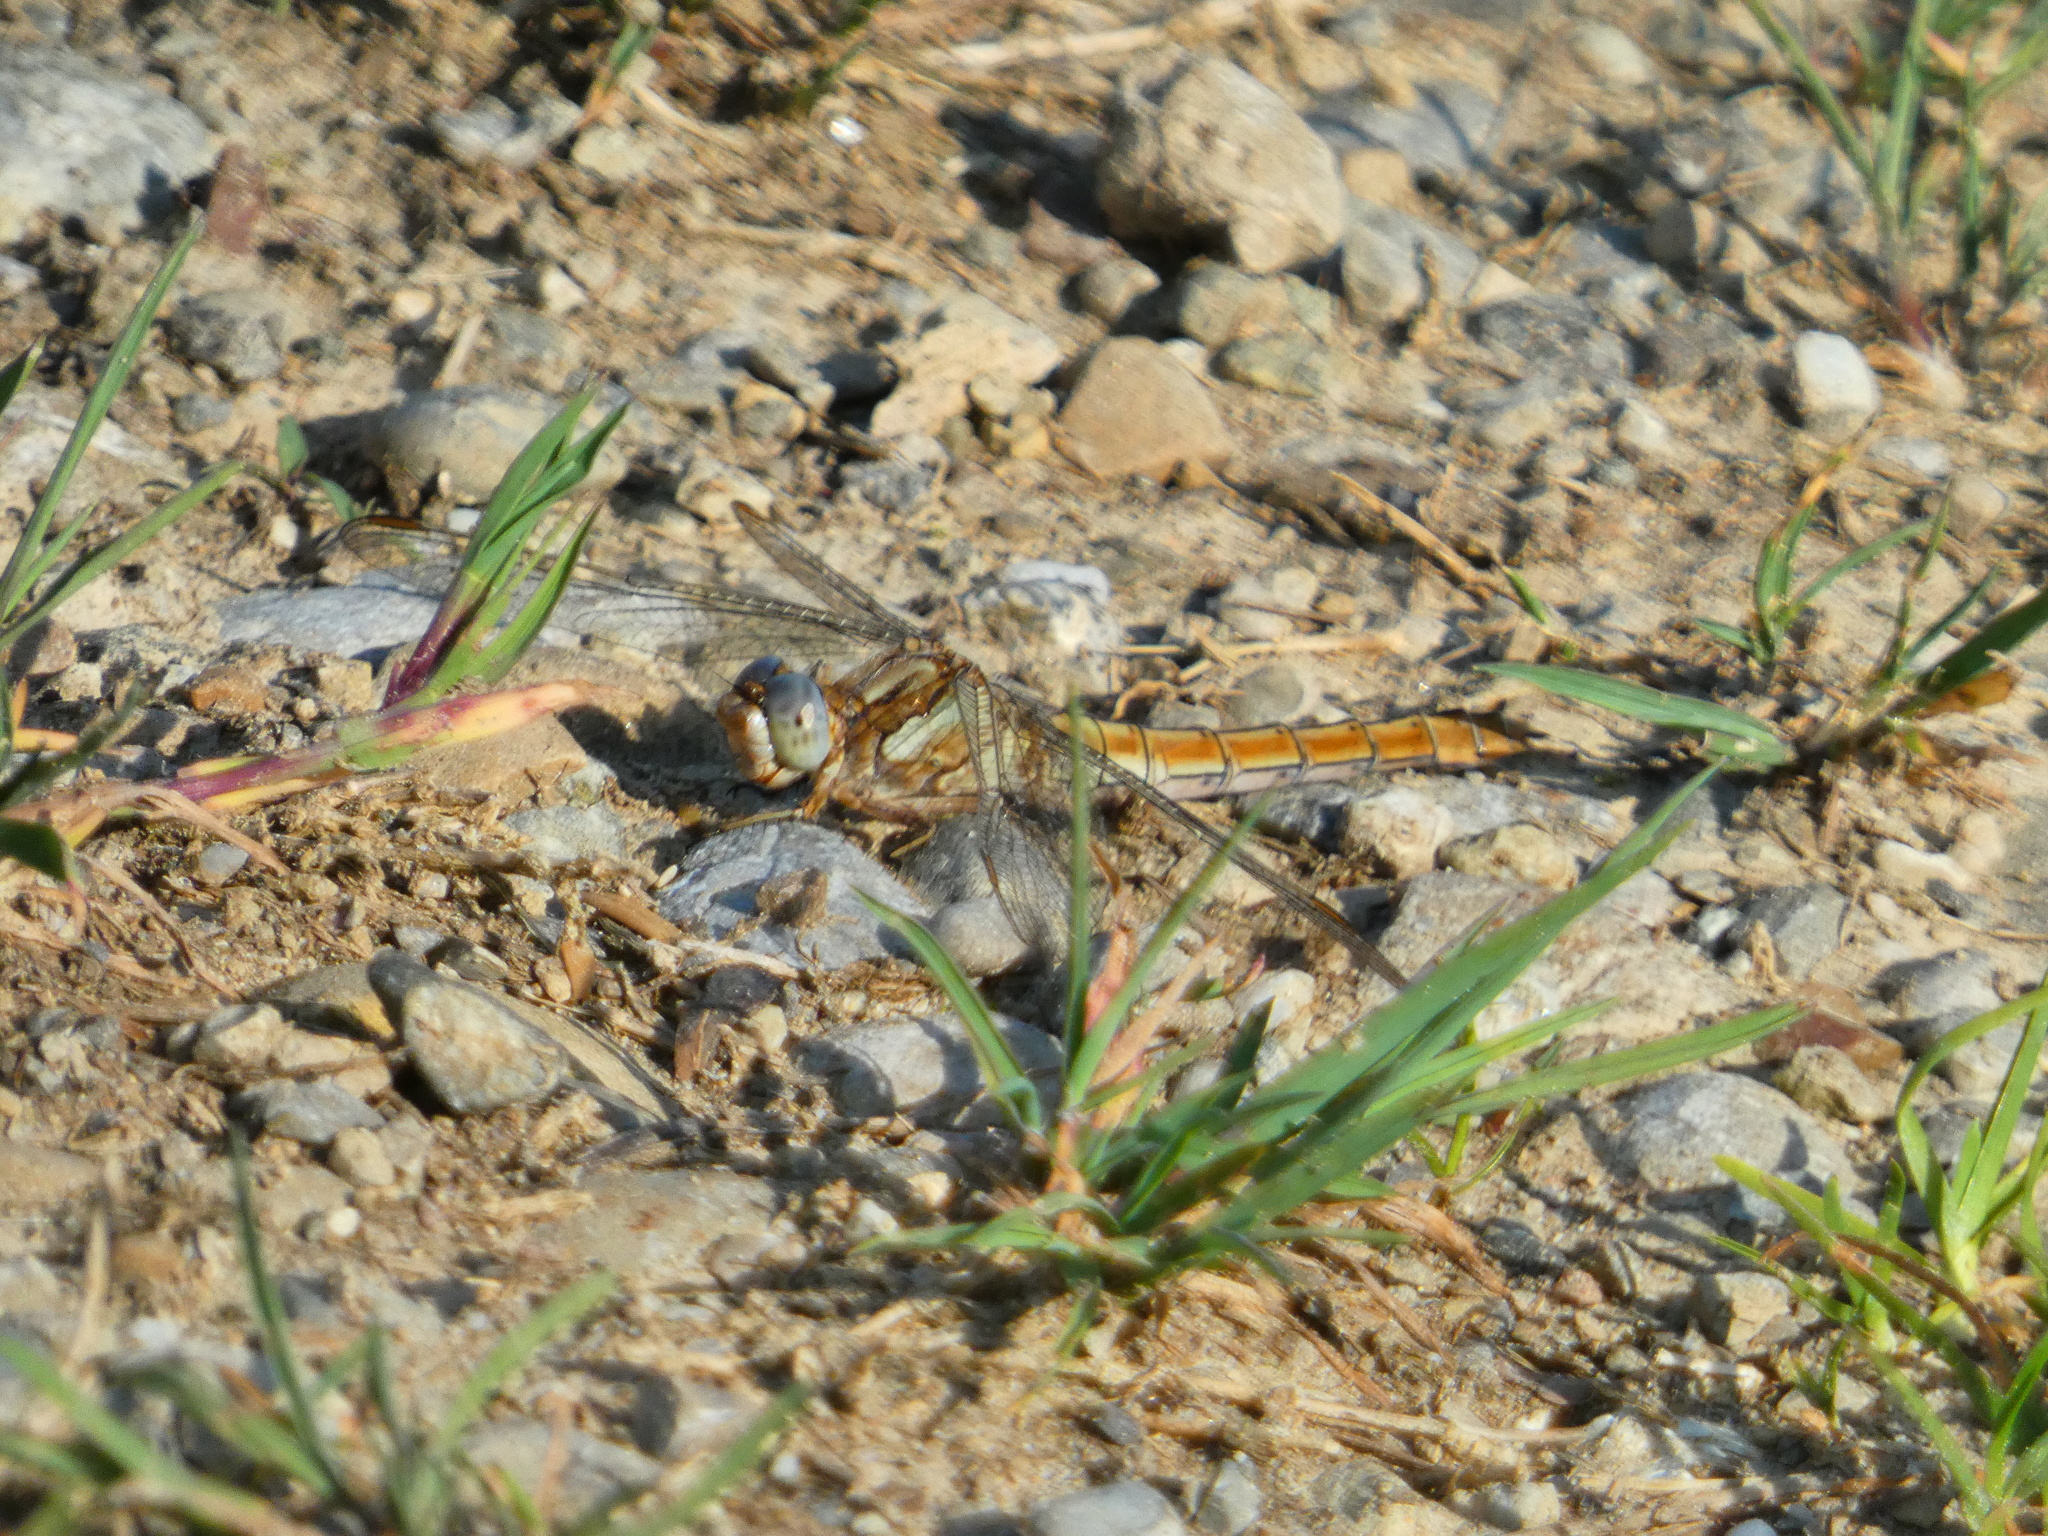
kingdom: Animalia
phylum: Arthropoda
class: Insecta
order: Odonata
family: Libellulidae
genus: Orthetrum
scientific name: Orthetrum brunneum
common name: Southern skimmer
